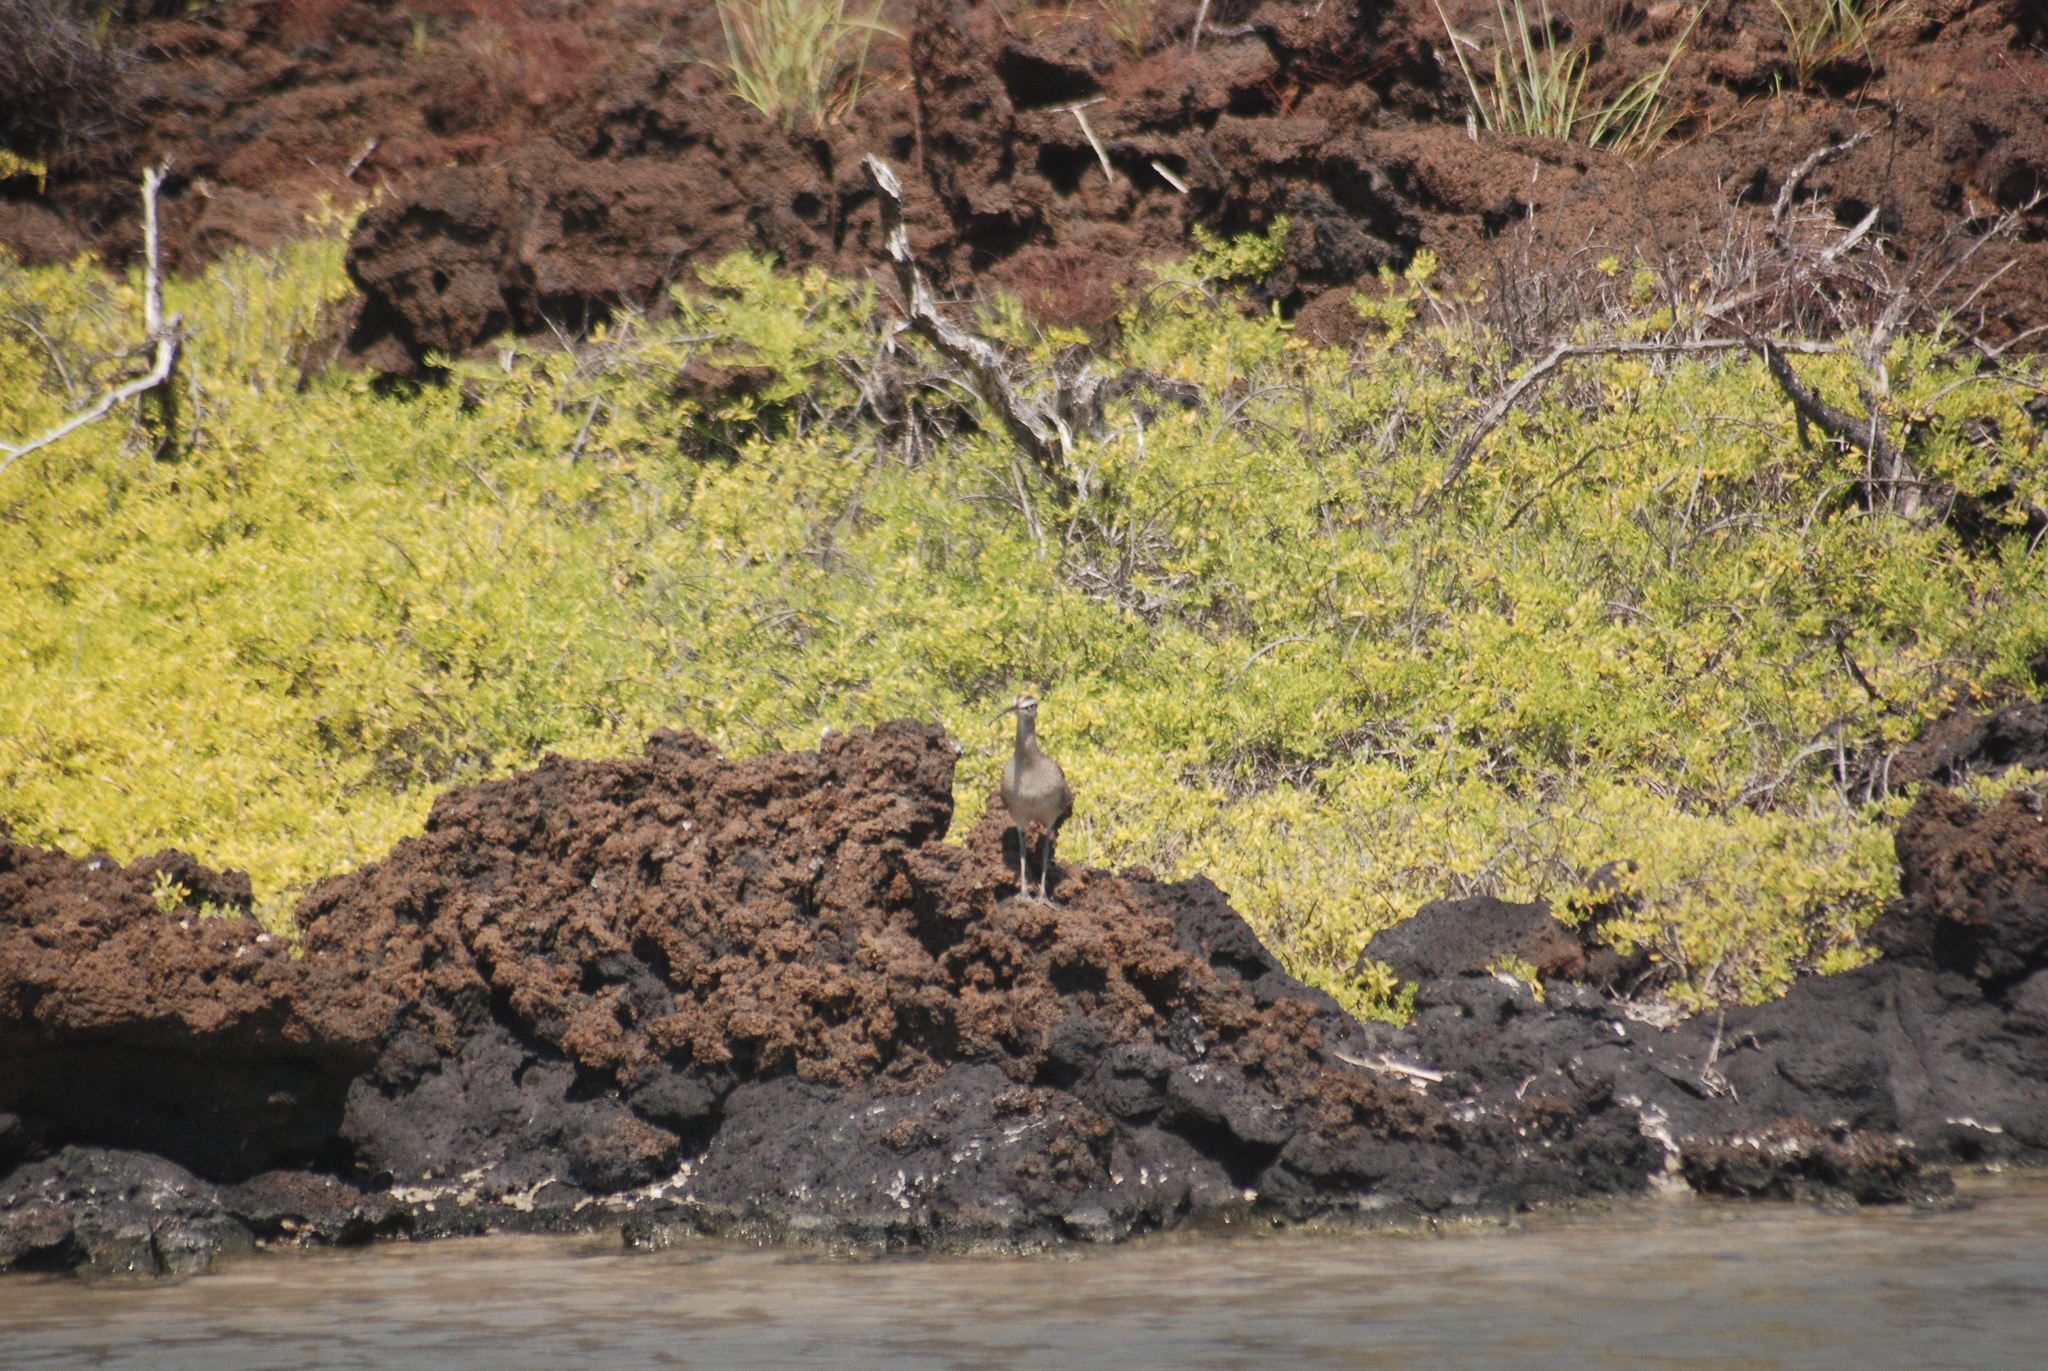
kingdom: Animalia
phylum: Chordata
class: Aves
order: Charadriiformes
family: Scolopacidae
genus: Numenius
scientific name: Numenius phaeopus
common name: Whimbrel
